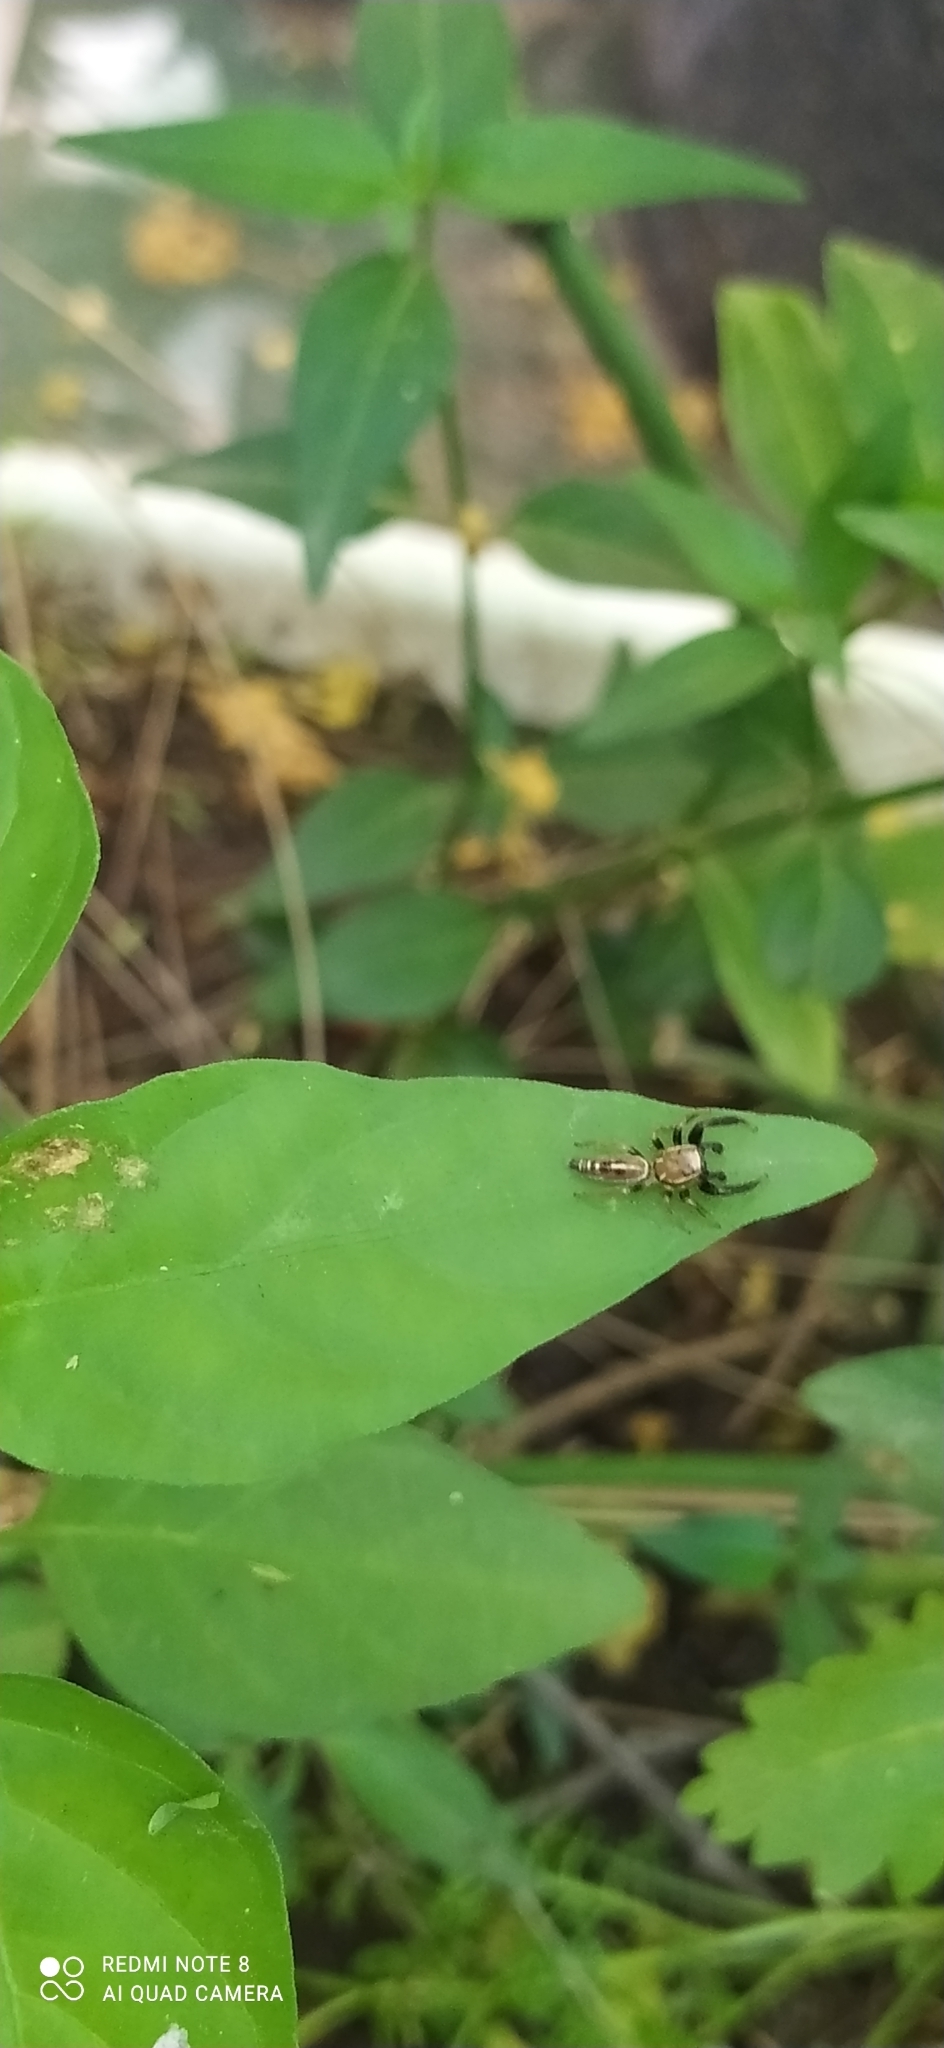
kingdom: Animalia
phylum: Arthropoda
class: Arachnida
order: Araneae
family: Salticidae
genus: Cotinusa
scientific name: Cotinusa vittata
